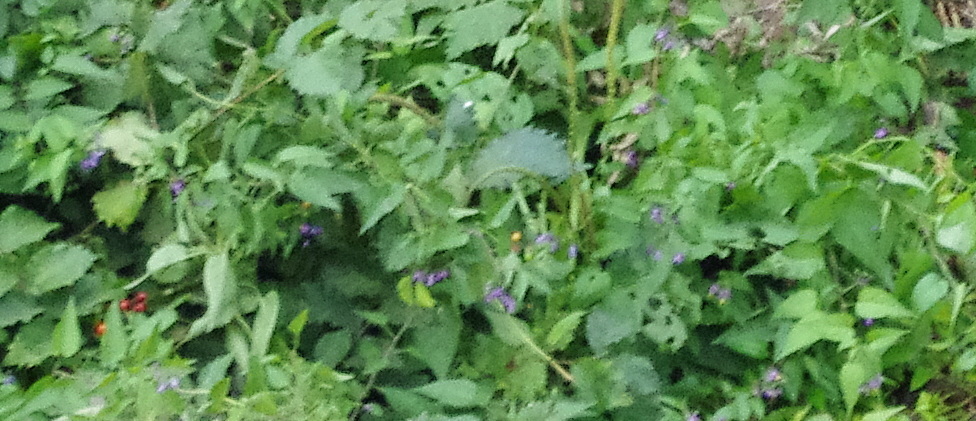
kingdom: Plantae
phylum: Tracheophyta
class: Magnoliopsida
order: Solanales
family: Solanaceae
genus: Solanum
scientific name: Solanum dulcamara
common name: Climbing nightshade
